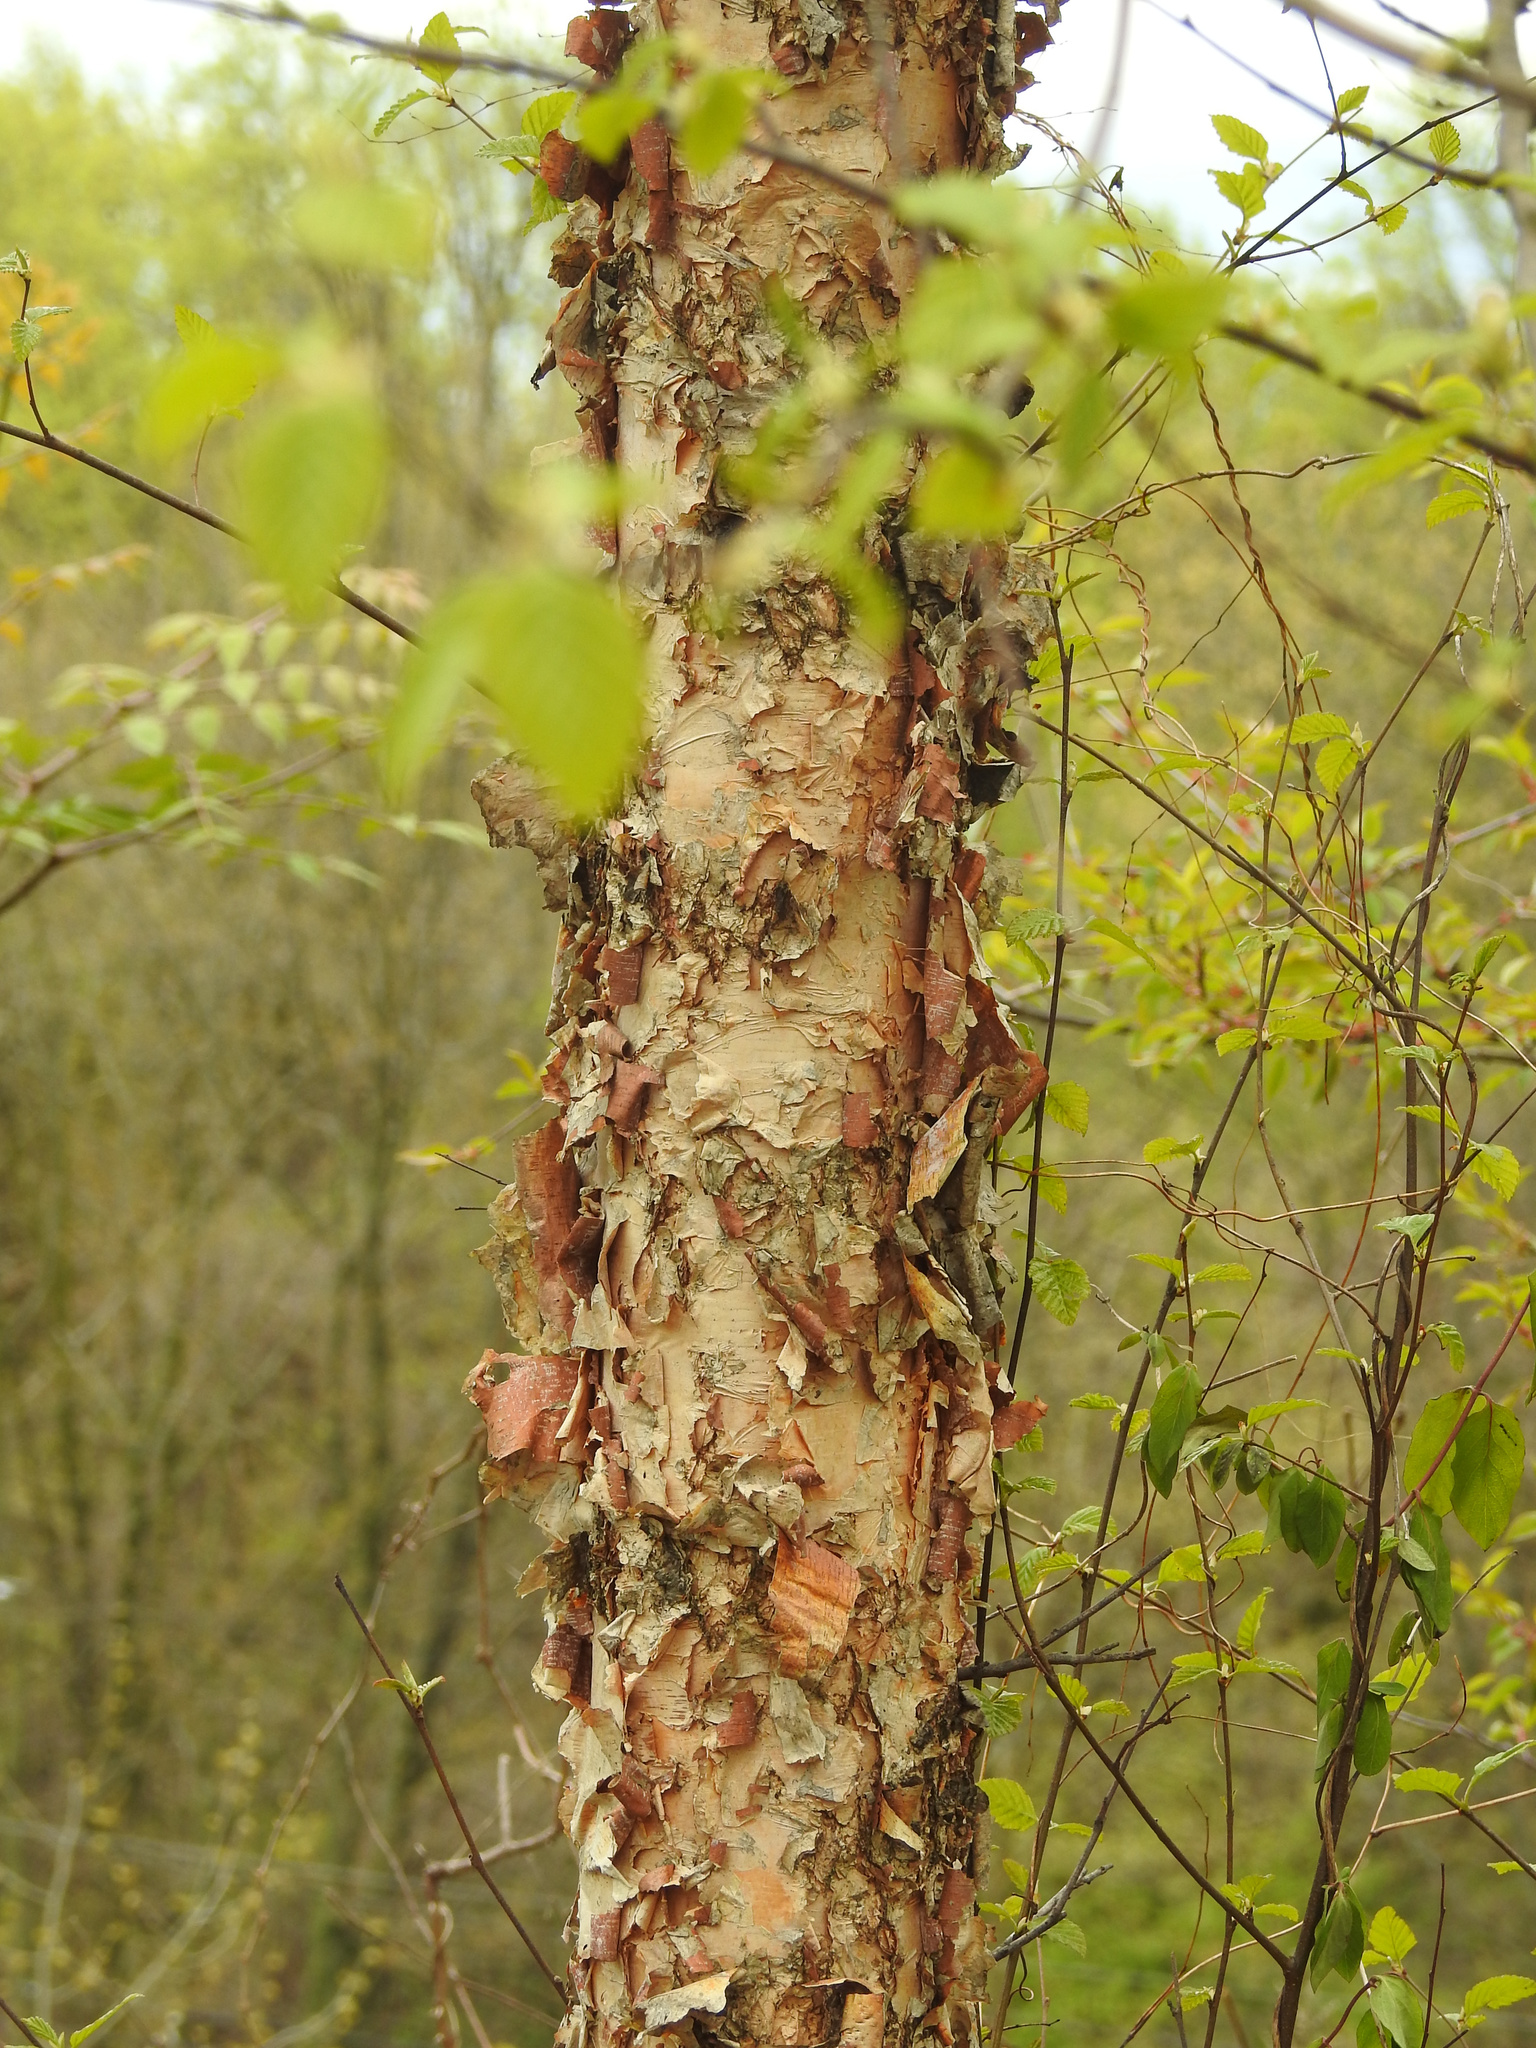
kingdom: Plantae
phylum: Tracheophyta
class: Magnoliopsida
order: Fagales
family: Betulaceae
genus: Betula
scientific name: Betula nigra
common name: Black birch
